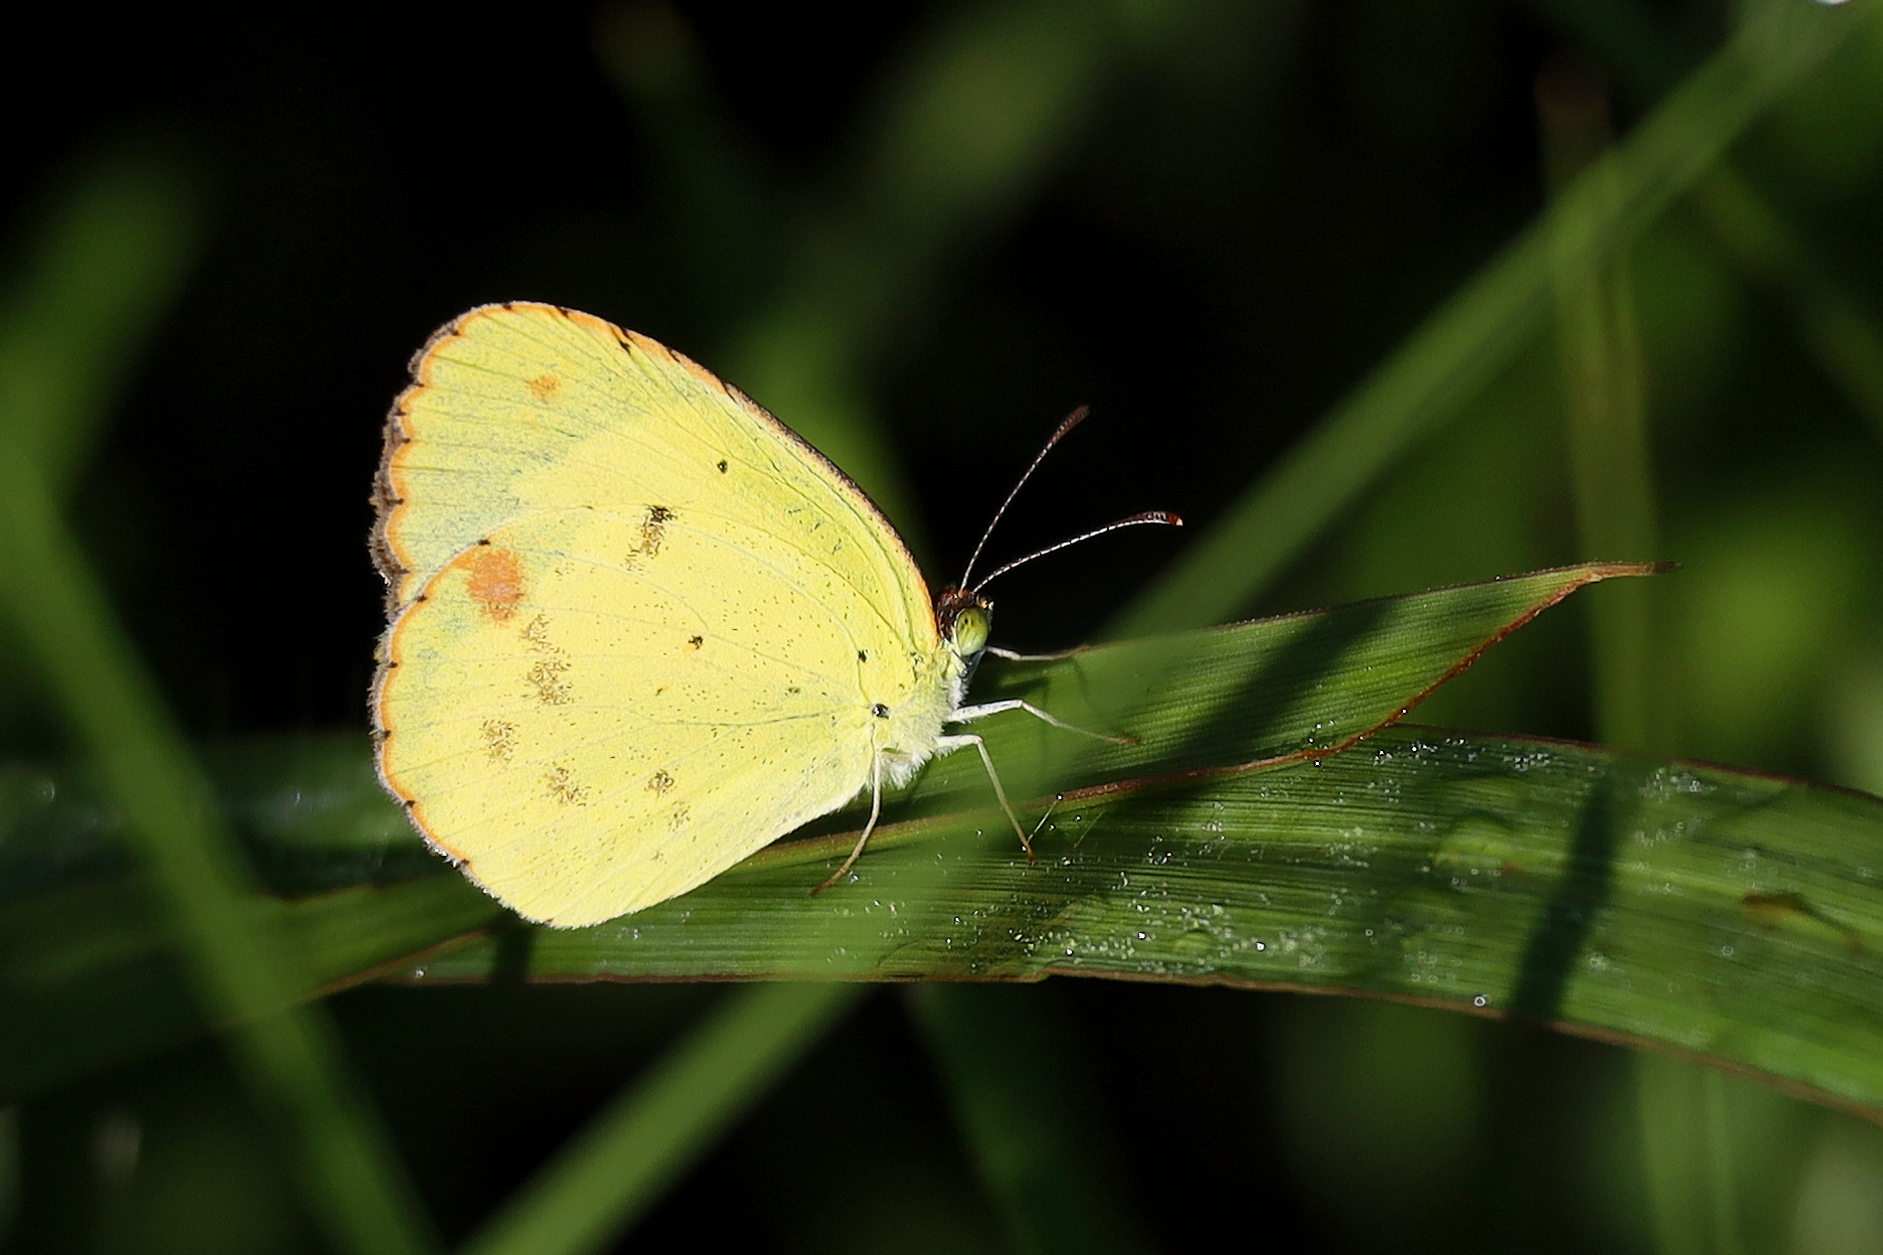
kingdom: Animalia
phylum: Arthropoda
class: Insecta
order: Lepidoptera
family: Pieridae
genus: Pyrisitia
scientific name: Pyrisitia lisa
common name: Little yellow
